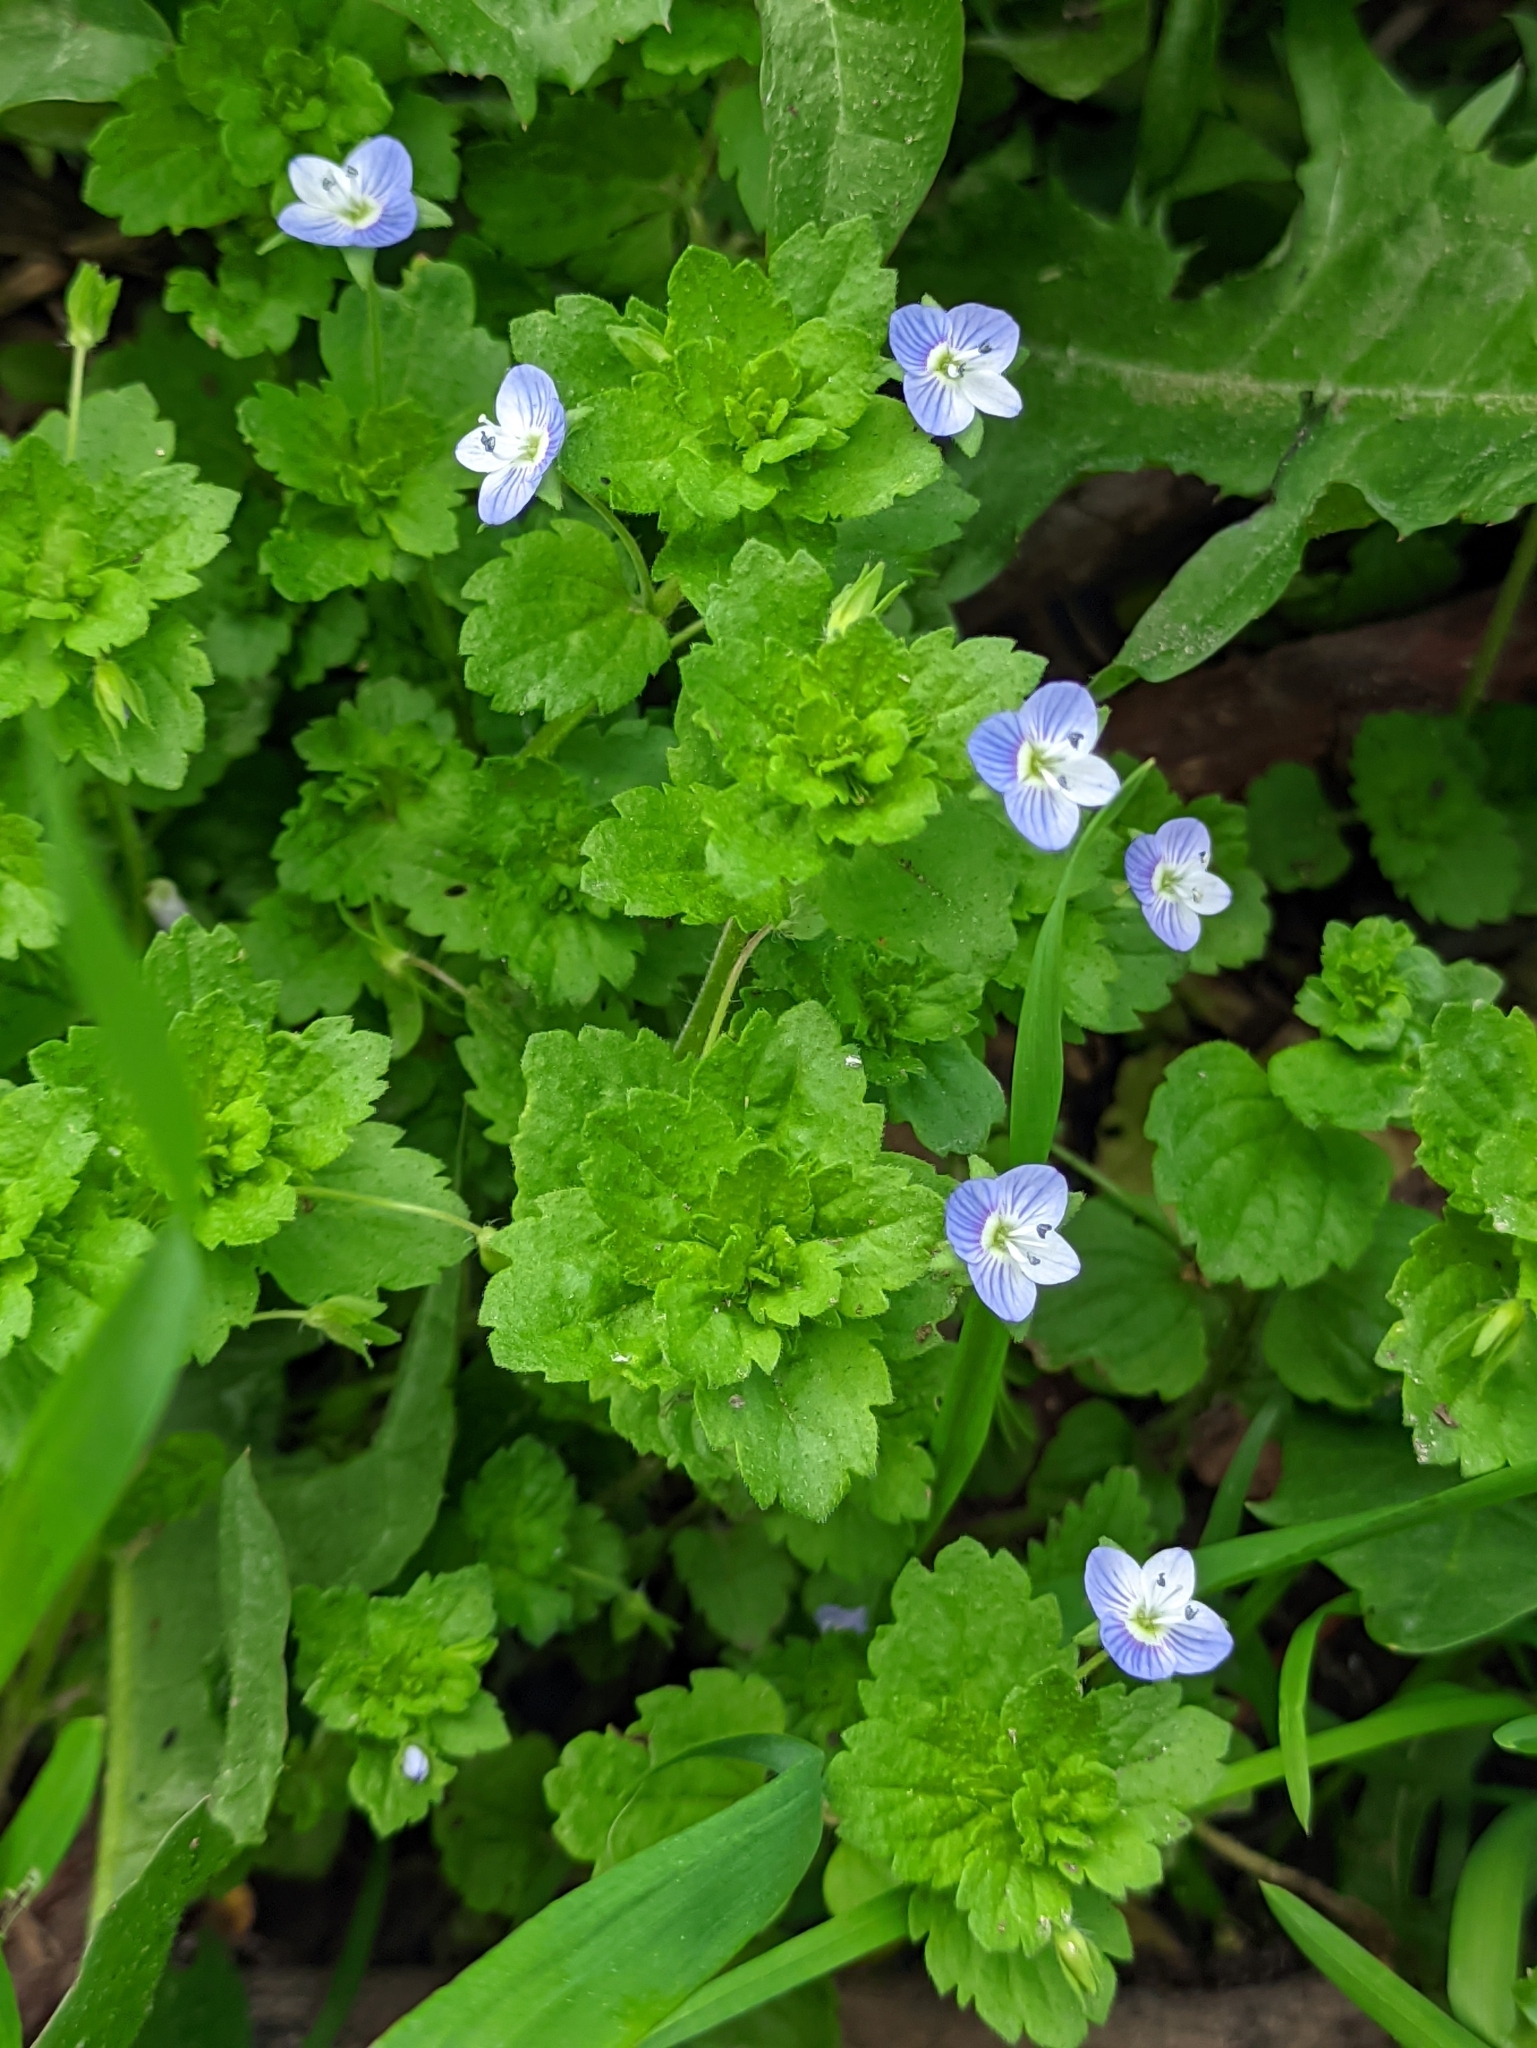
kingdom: Plantae
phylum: Tracheophyta
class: Magnoliopsida
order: Lamiales
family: Plantaginaceae
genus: Veronica
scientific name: Veronica persica
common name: Common field-speedwell
